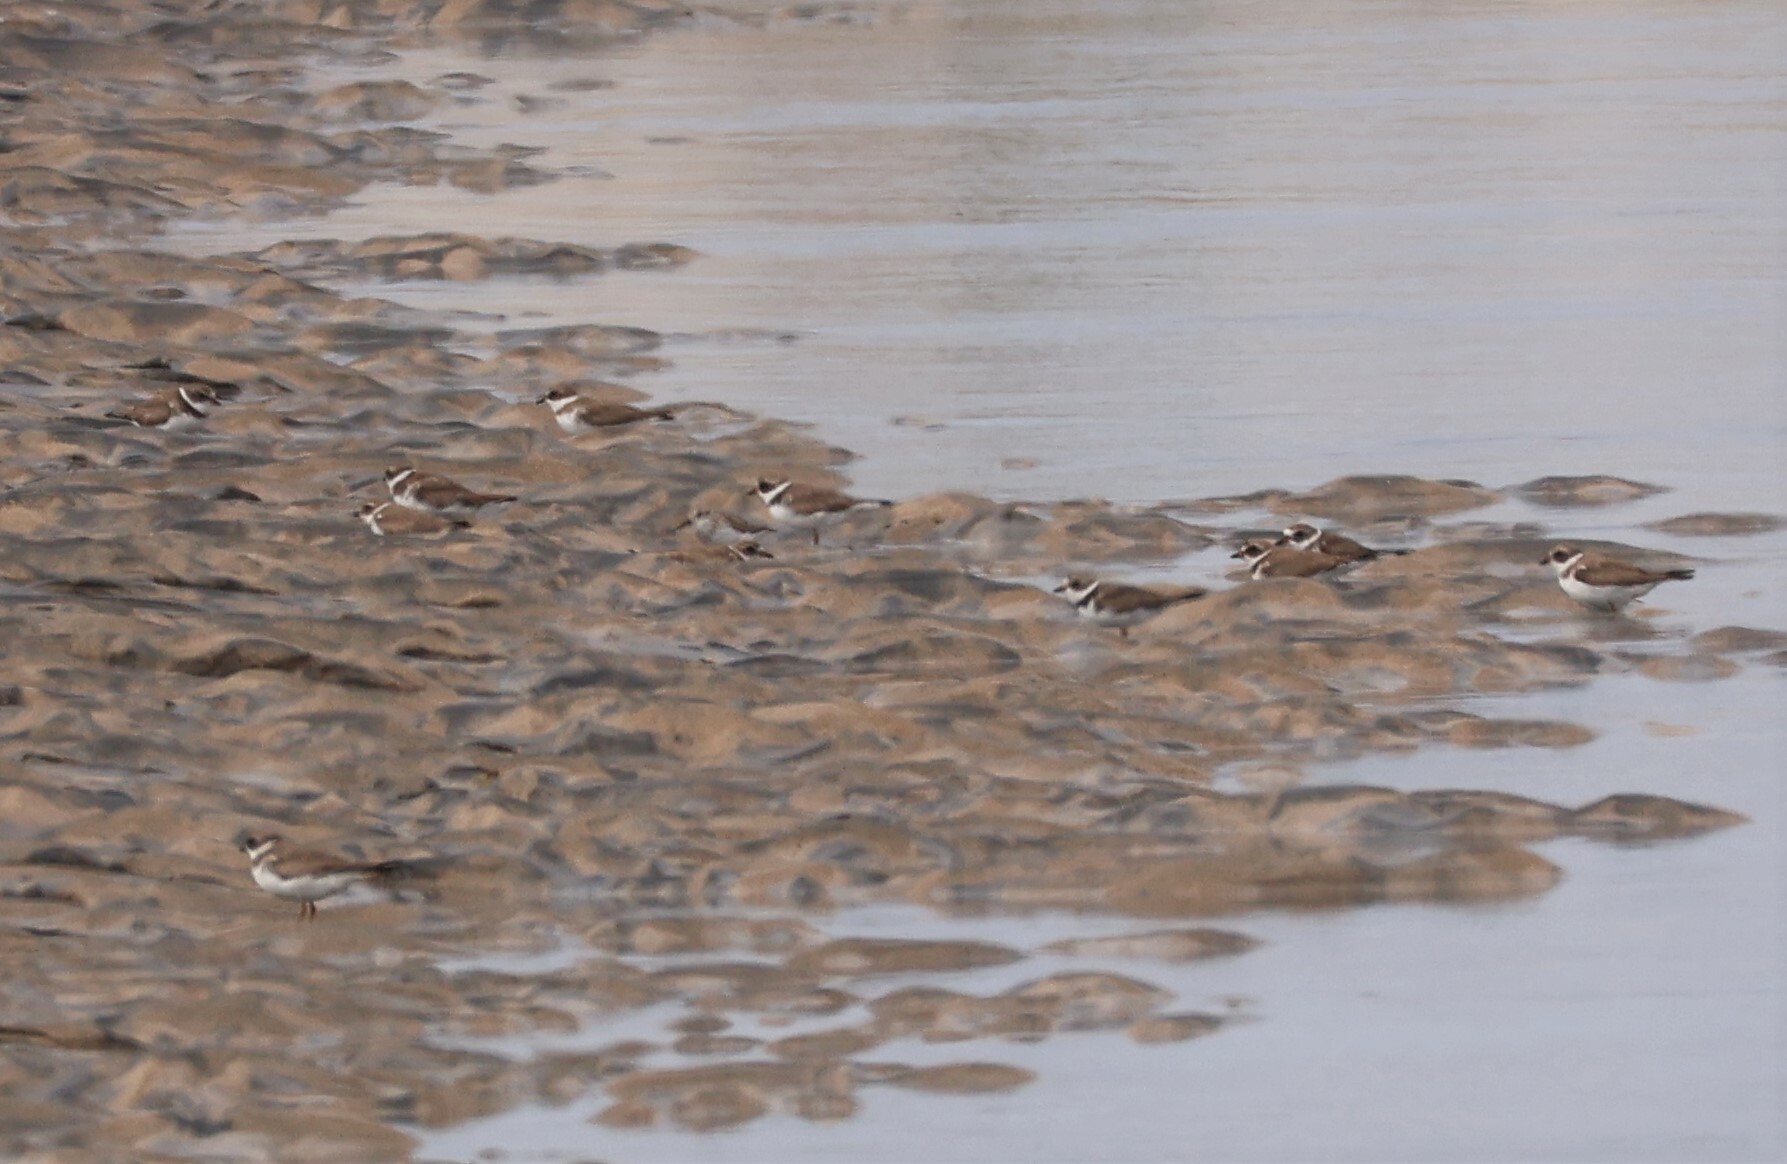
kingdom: Animalia
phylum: Chordata
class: Aves
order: Charadriiformes
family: Charadriidae
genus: Charadrius
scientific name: Charadrius semipalmatus
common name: Semipalmated plover
